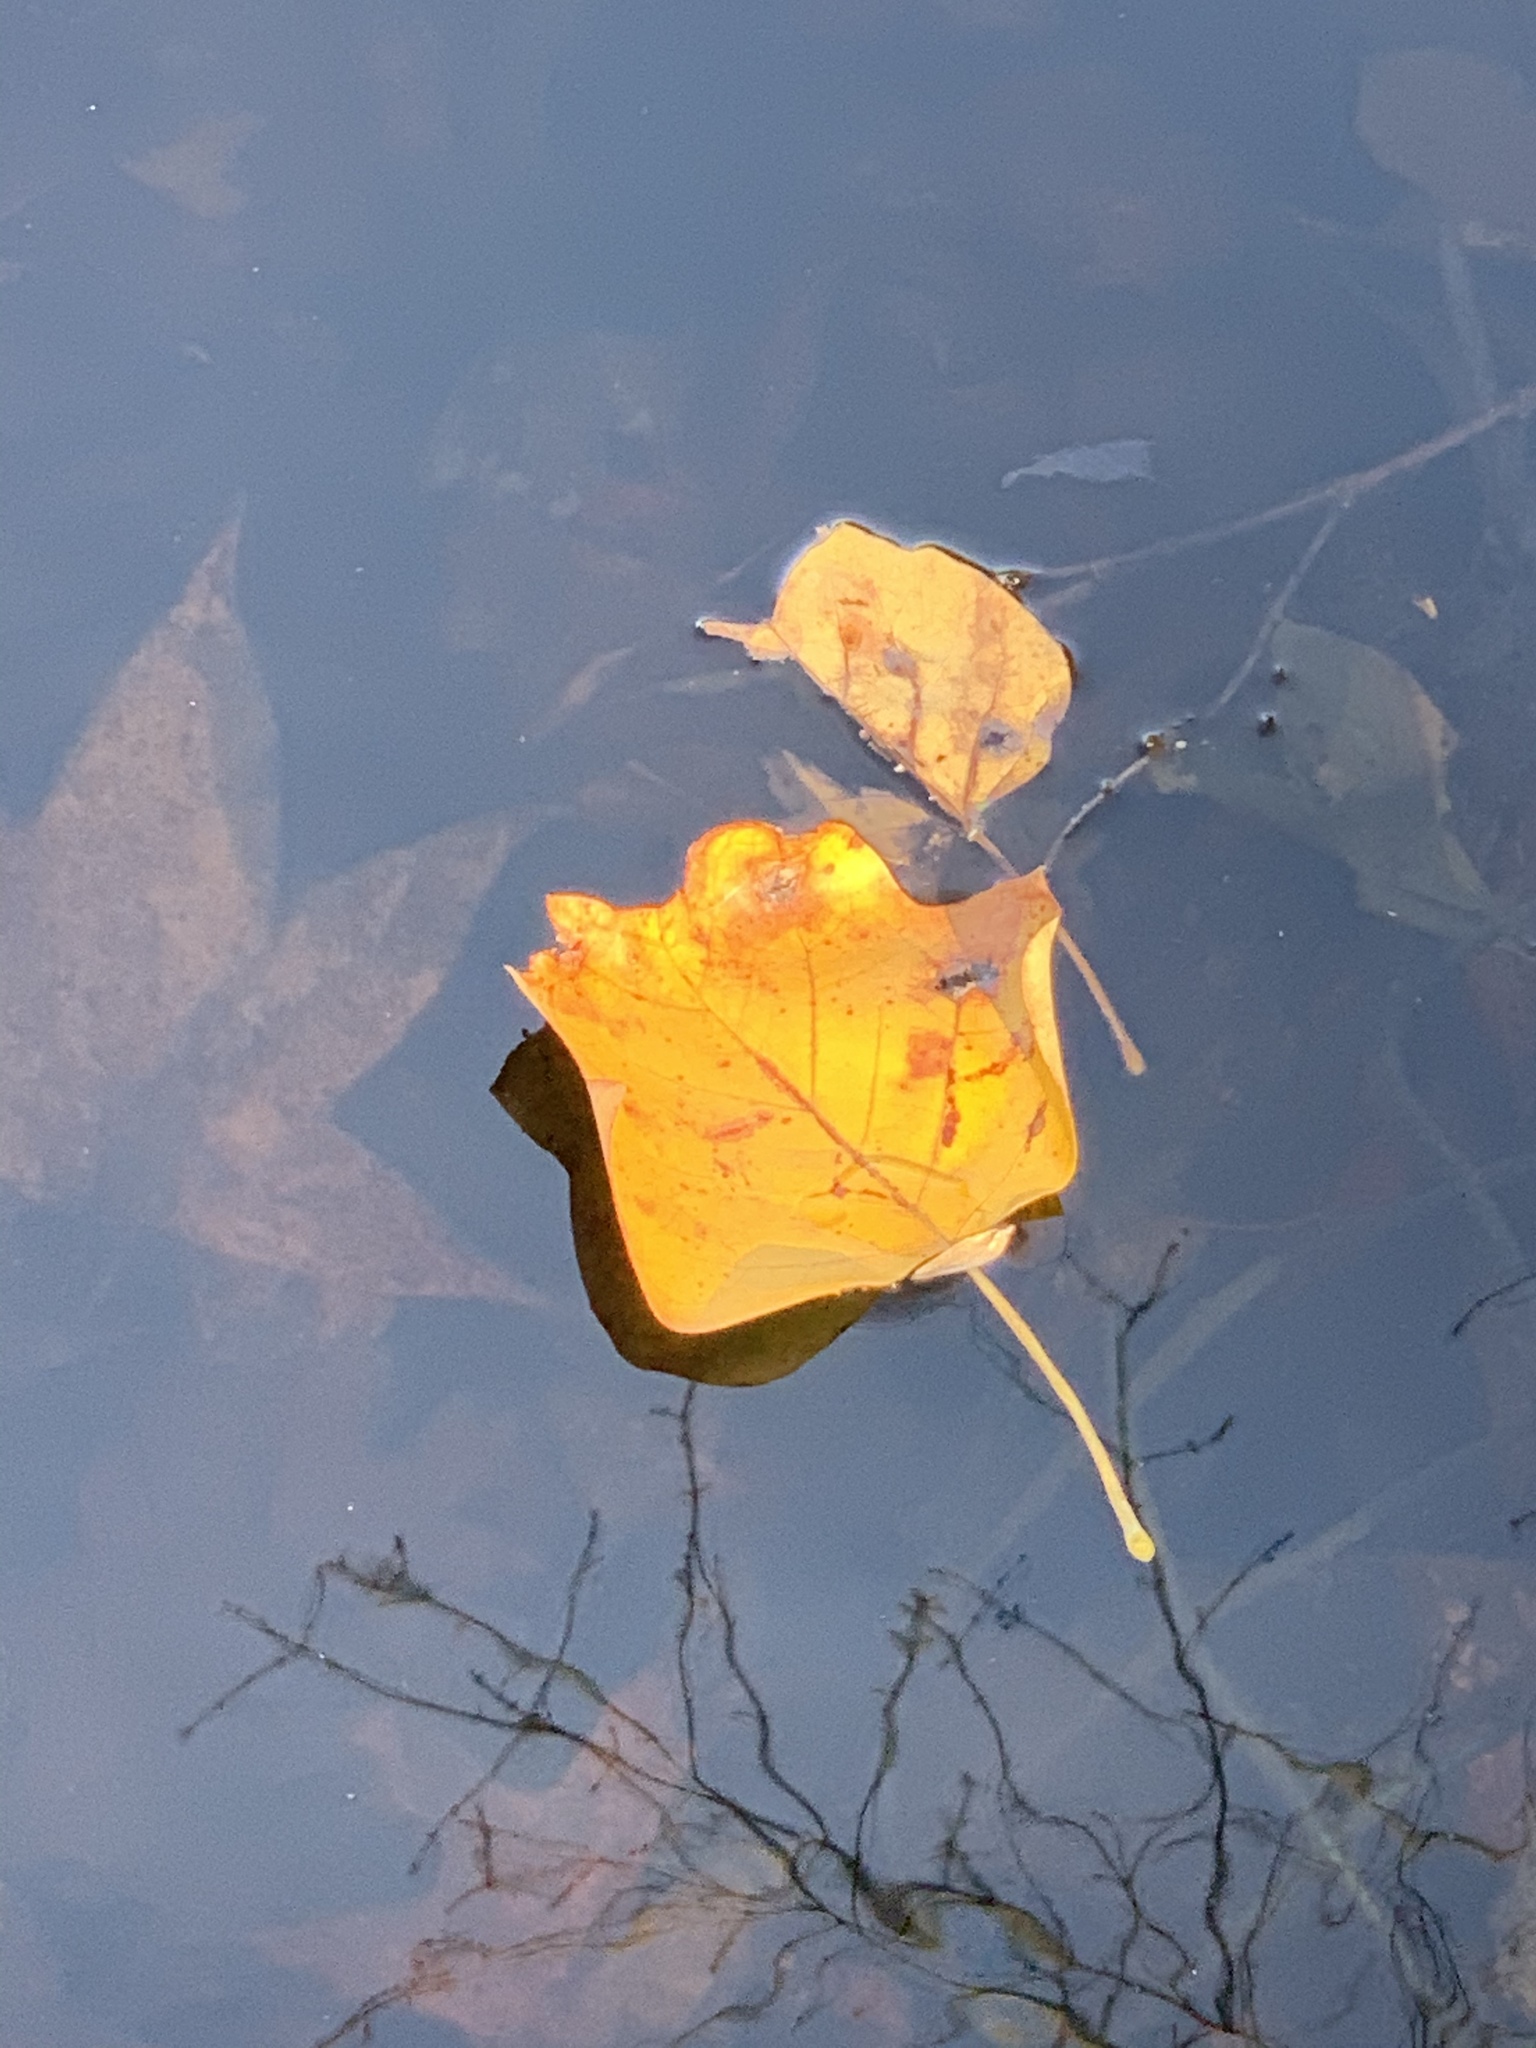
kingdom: Plantae
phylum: Tracheophyta
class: Magnoliopsida
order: Magnoliales
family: Magnoliaceae
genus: Liriodendron
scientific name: Liriodendron tulipifera
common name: Tulip tree
